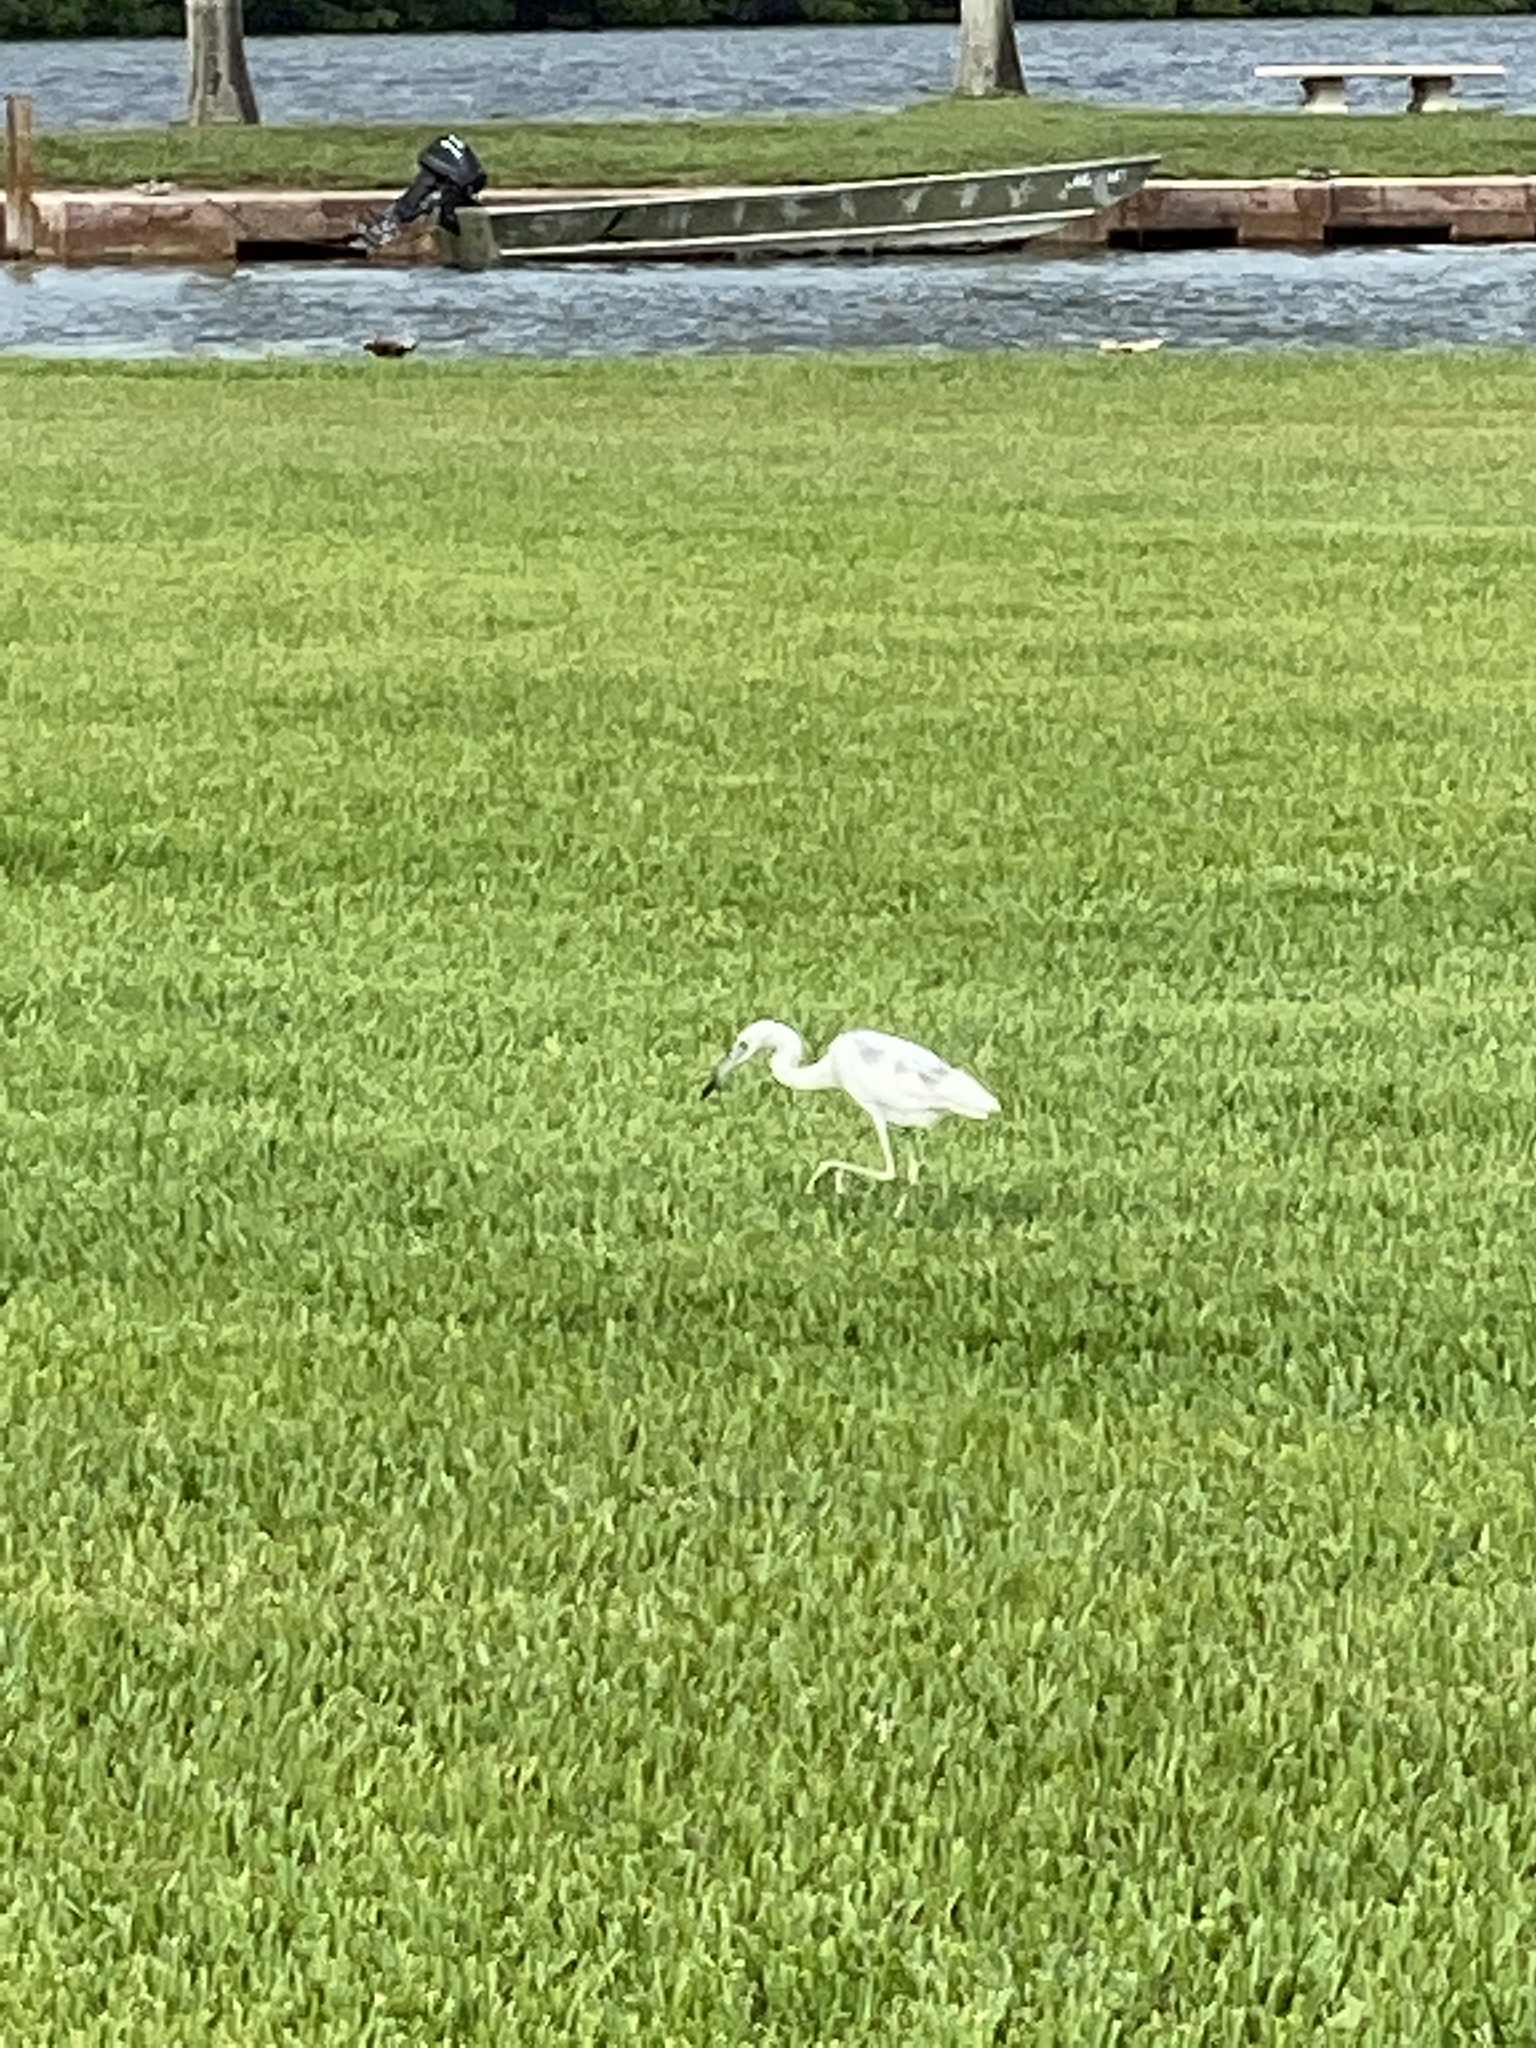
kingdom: Animalia
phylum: Chordata
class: Aves
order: Pelecaniformes
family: Ardeidae
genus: Egretta
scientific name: Egretta caerulea
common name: Little blue heron
